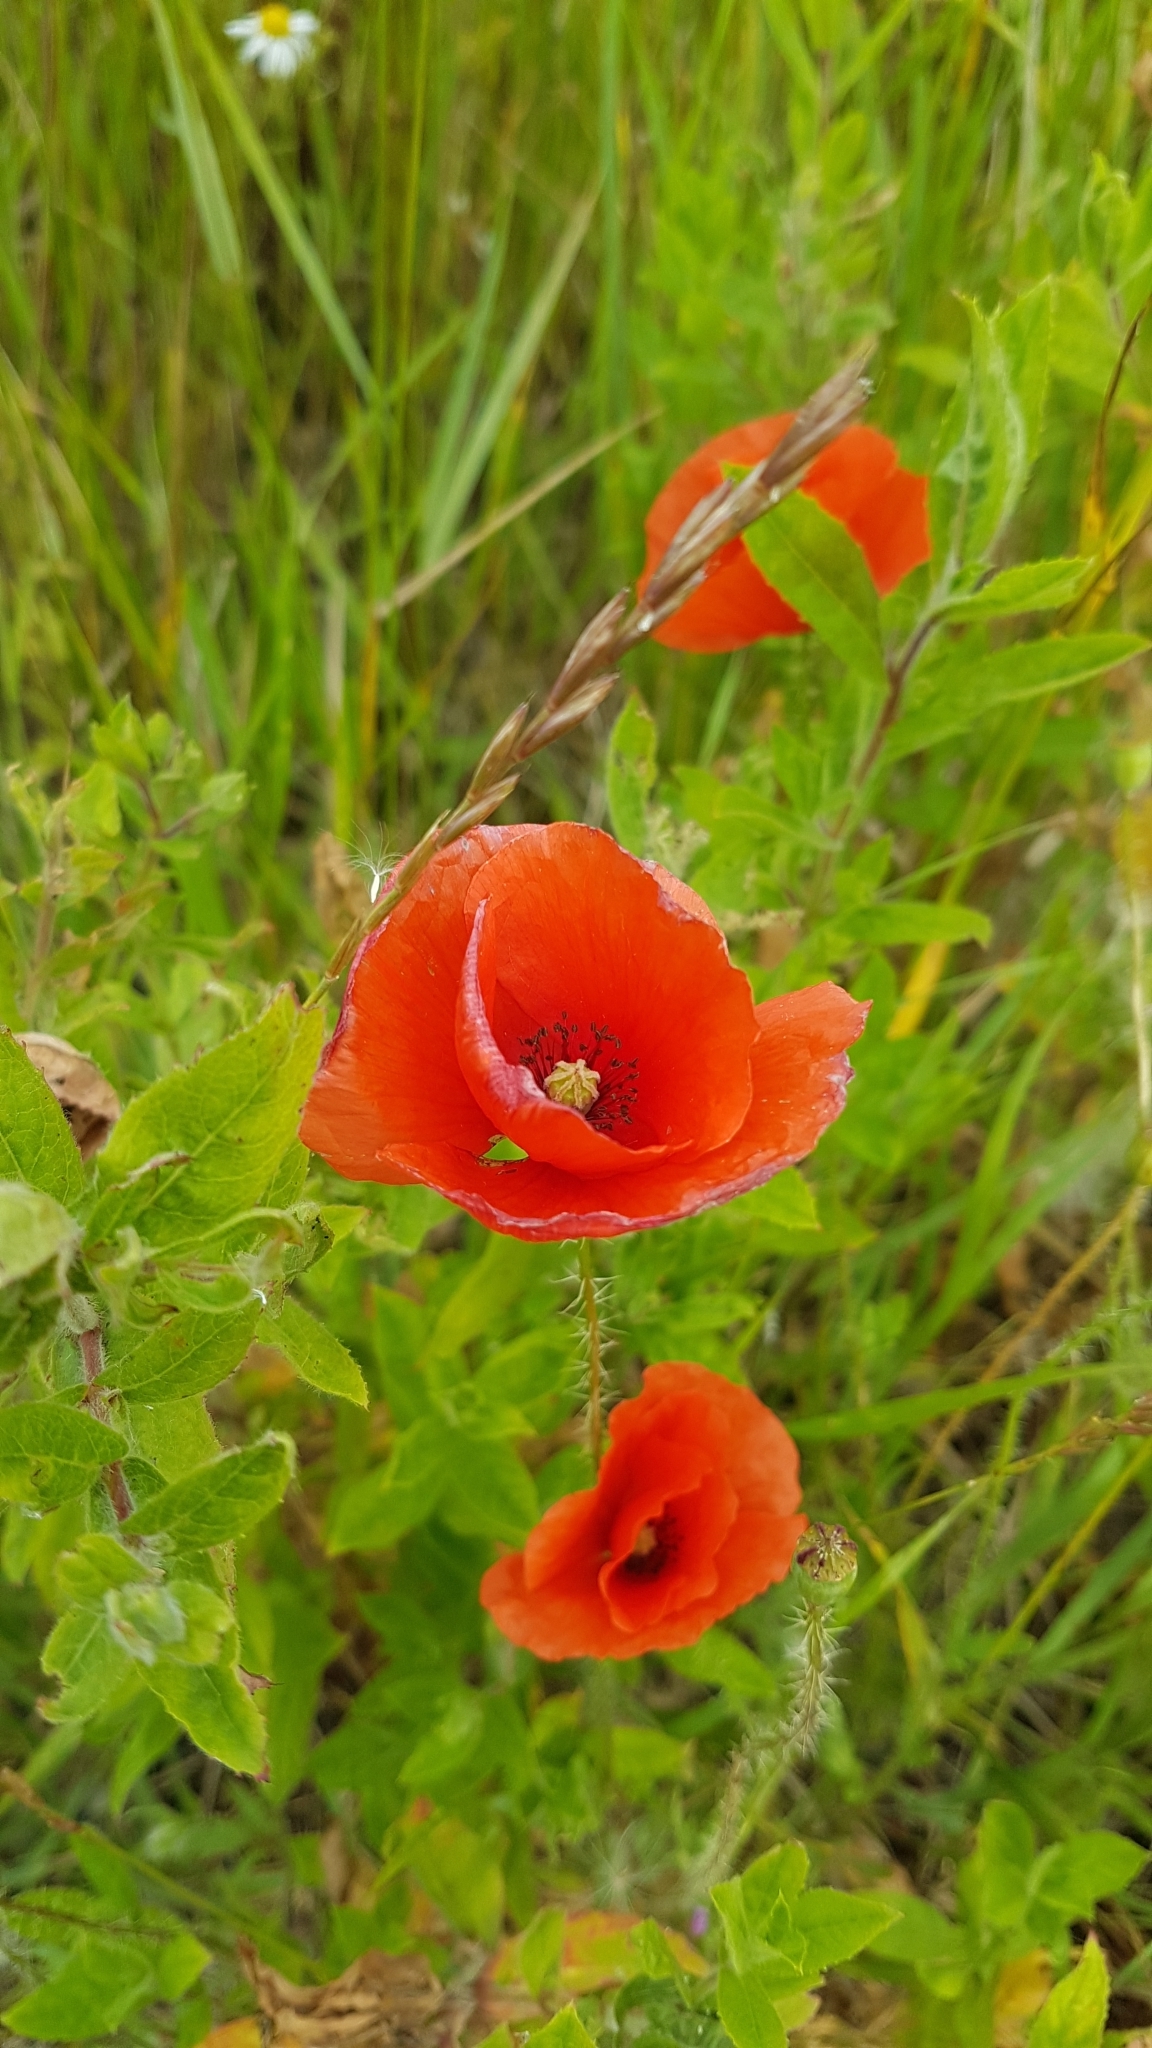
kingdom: Plantae
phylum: Tracheophyta
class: Magnoliopsida
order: Ranunculales
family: Papaveraceae
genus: Papaver
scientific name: Papaver rhoeas
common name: Corn poppy
